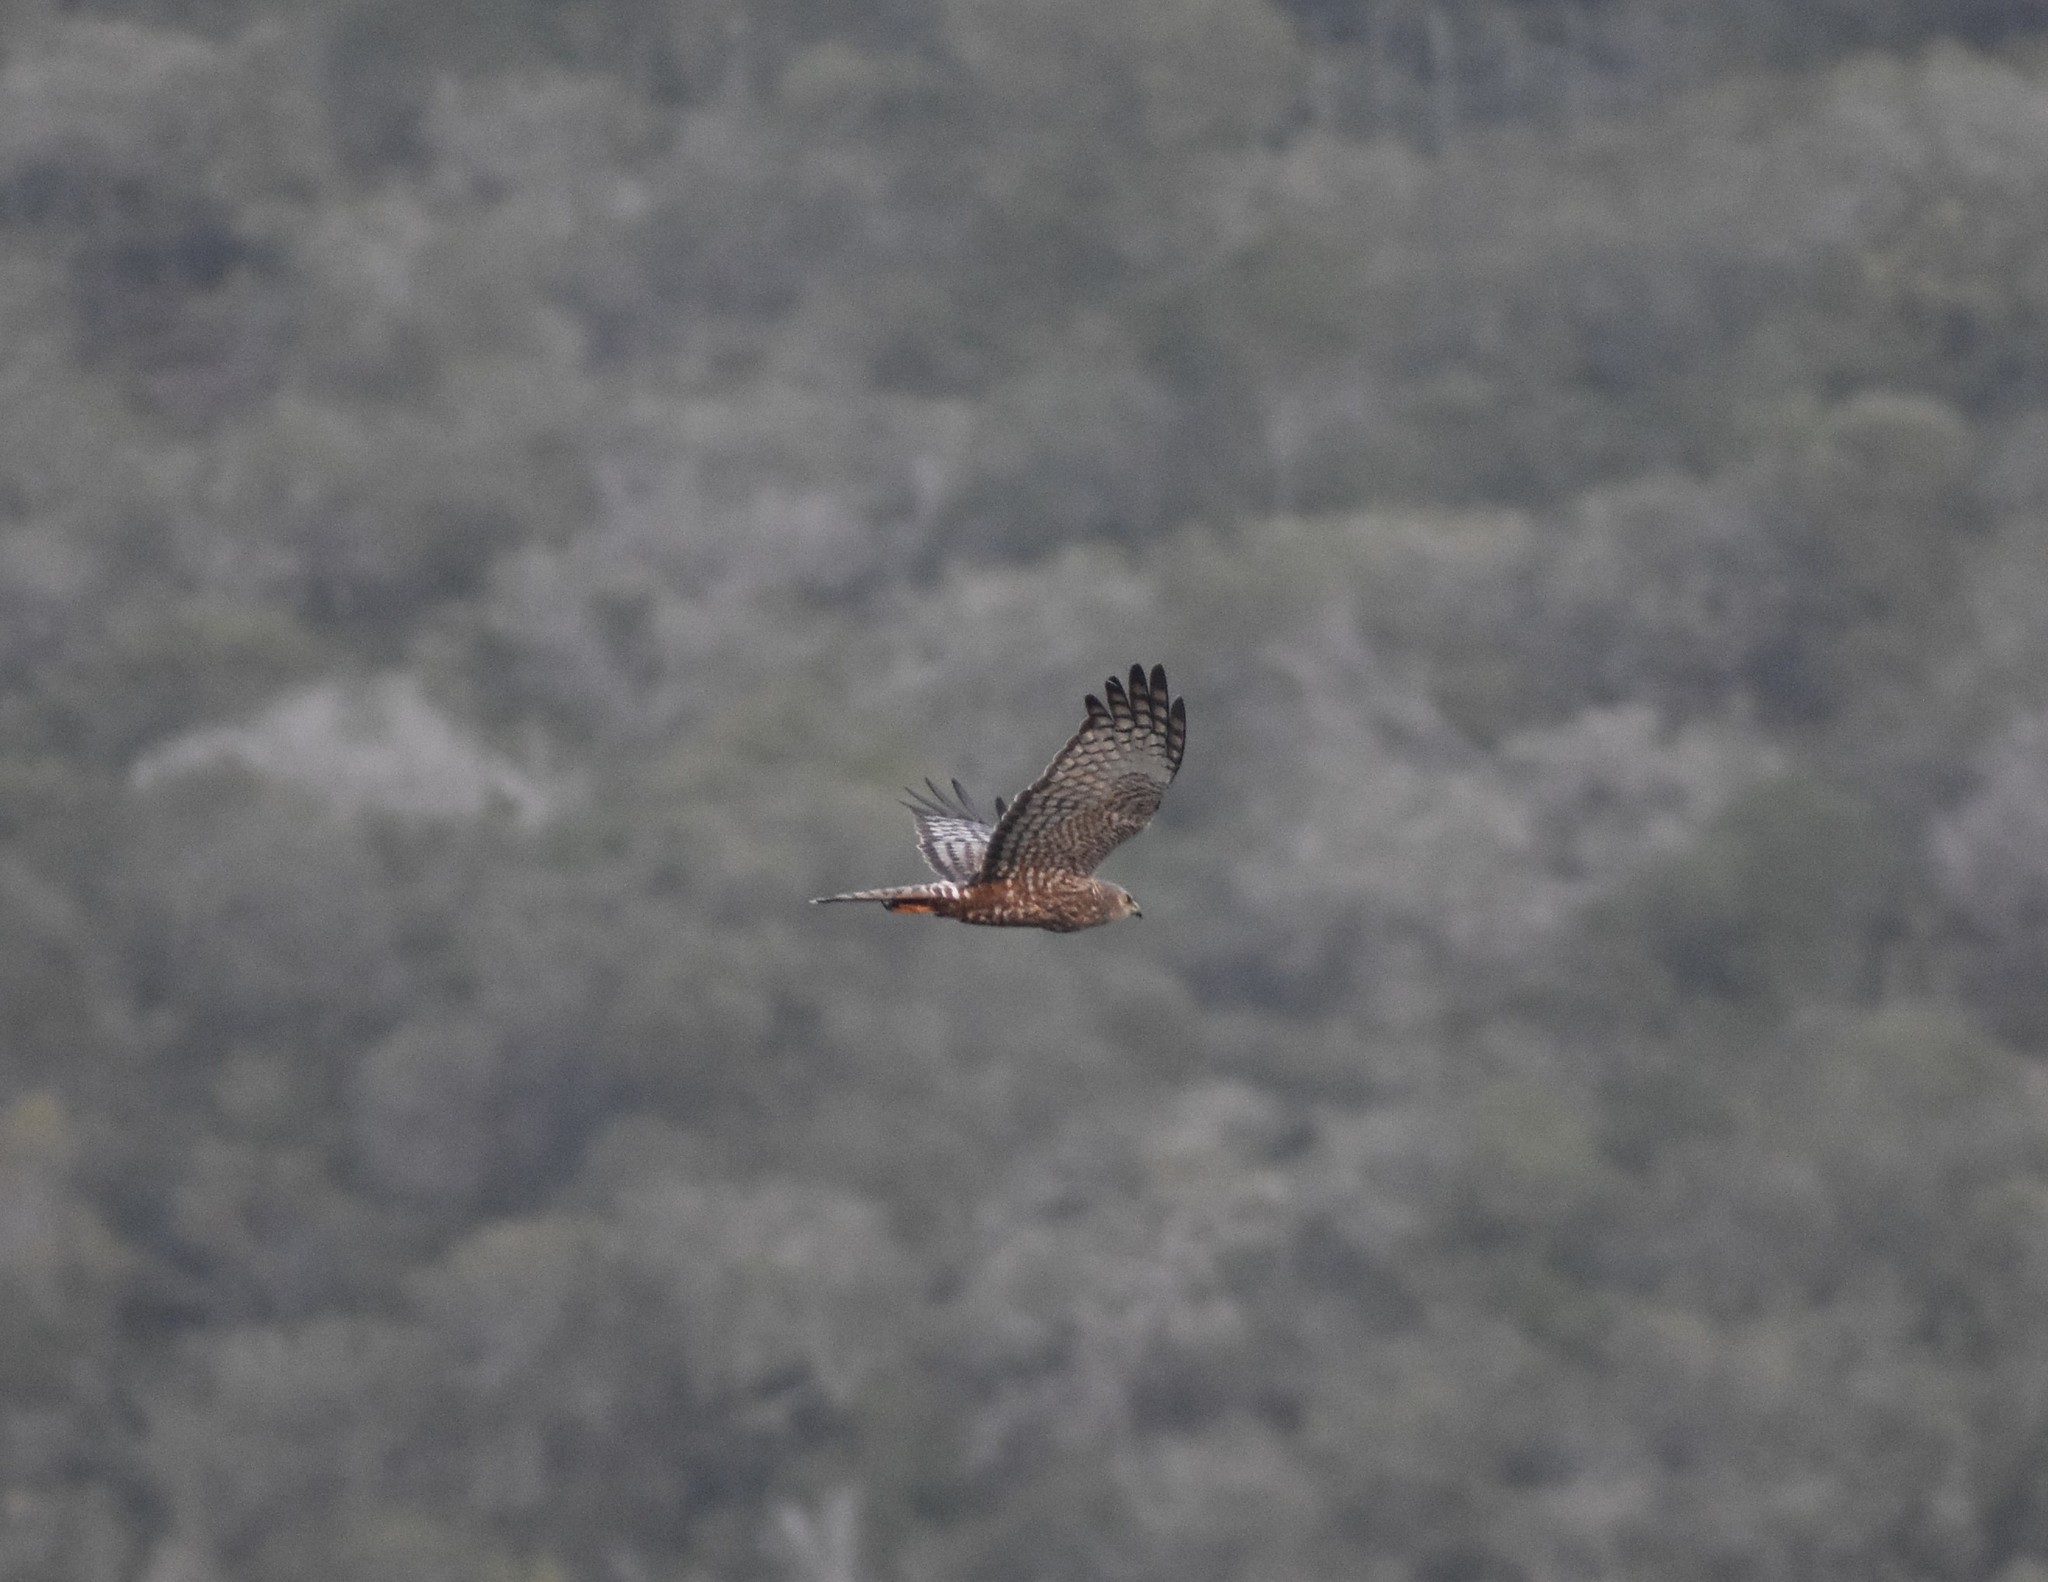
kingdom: Animalia
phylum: Chordata
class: Aves
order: Accipitriformes
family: Accipitridae
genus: Circus
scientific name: Circus ranivorus
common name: African marsh-harrier
